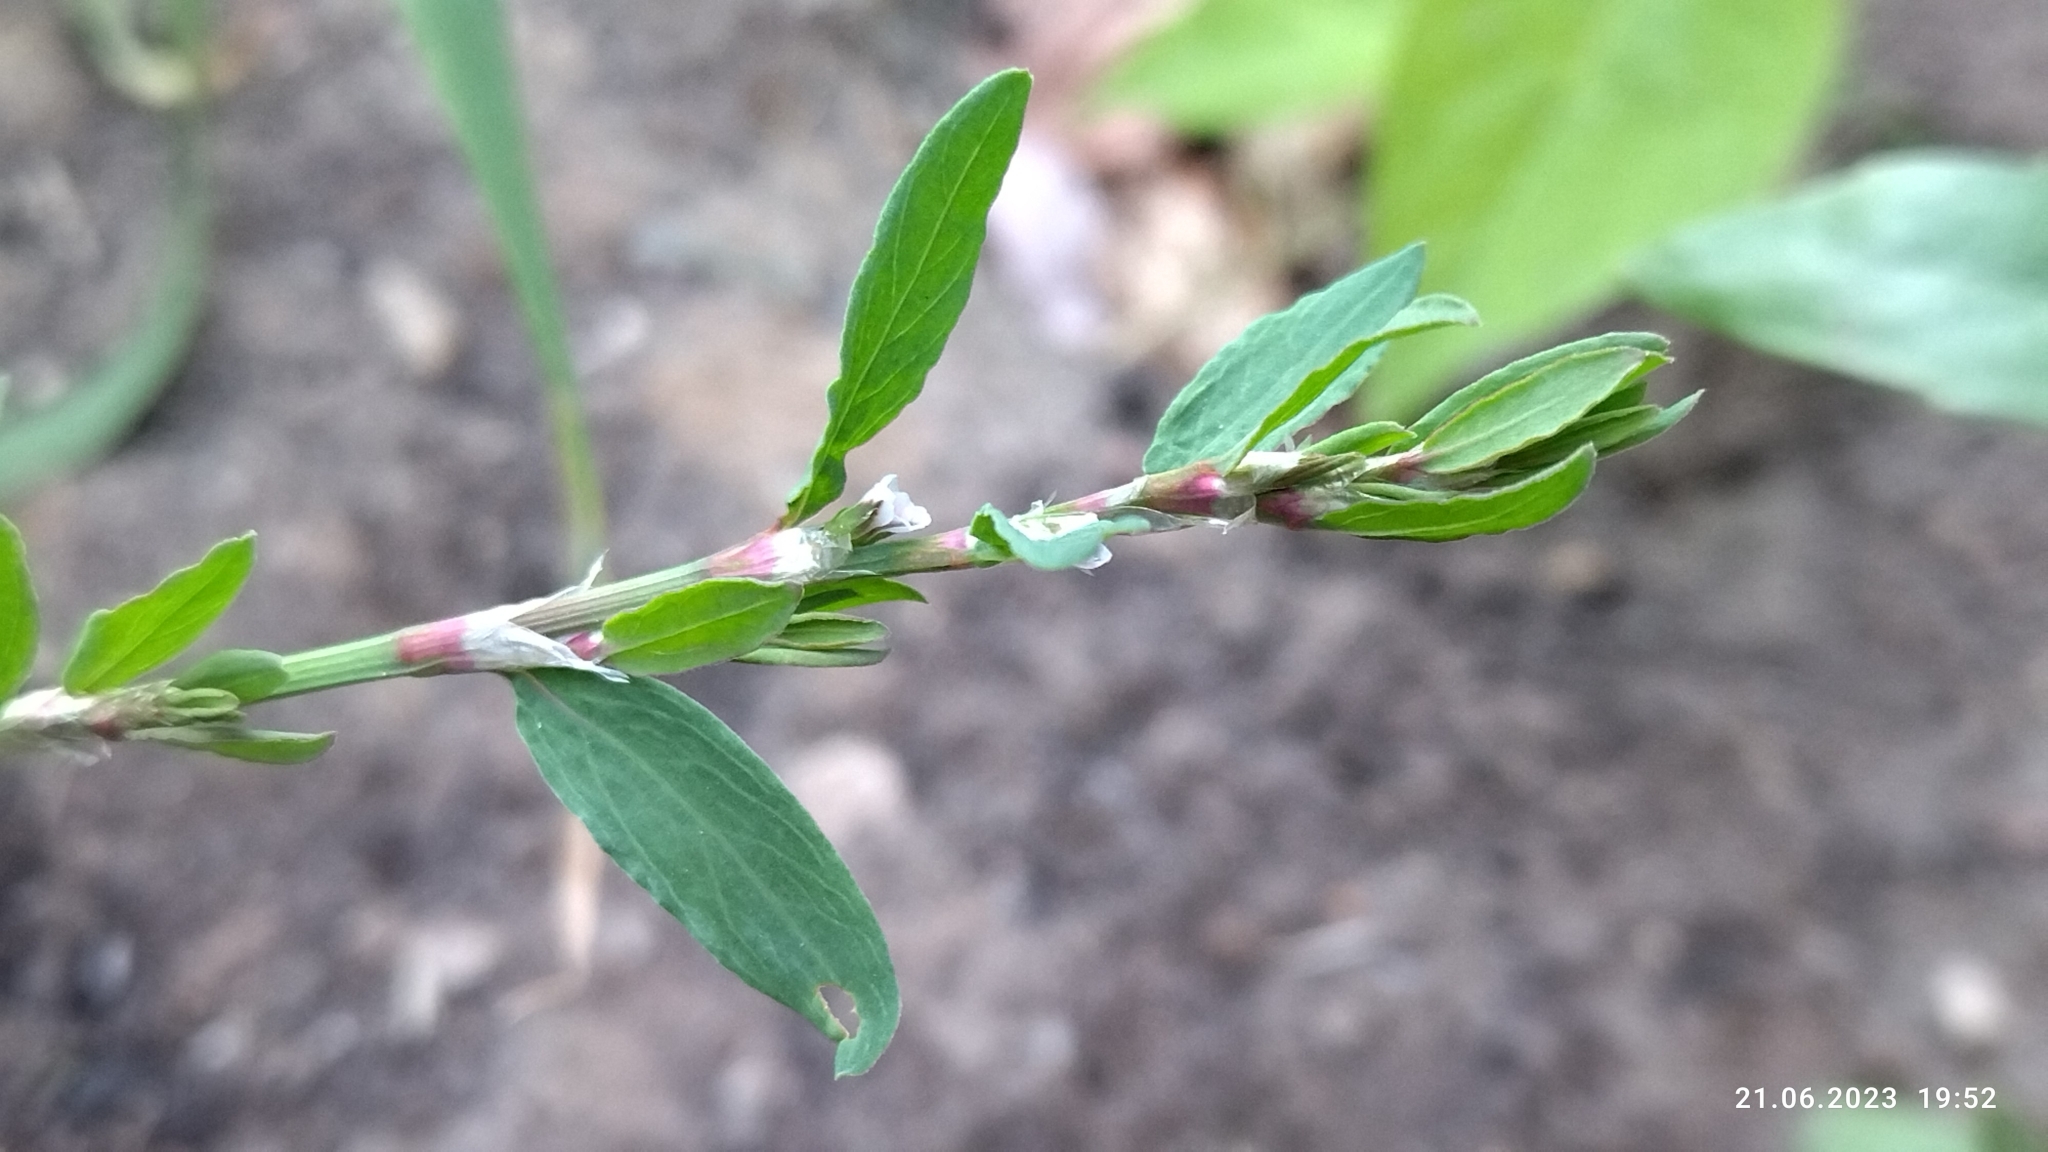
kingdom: Plantae
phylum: Tracheophyta
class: Magnoliopsida
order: Caryophyllales
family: Polygonaceae
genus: Polygonum
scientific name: Polygonum
